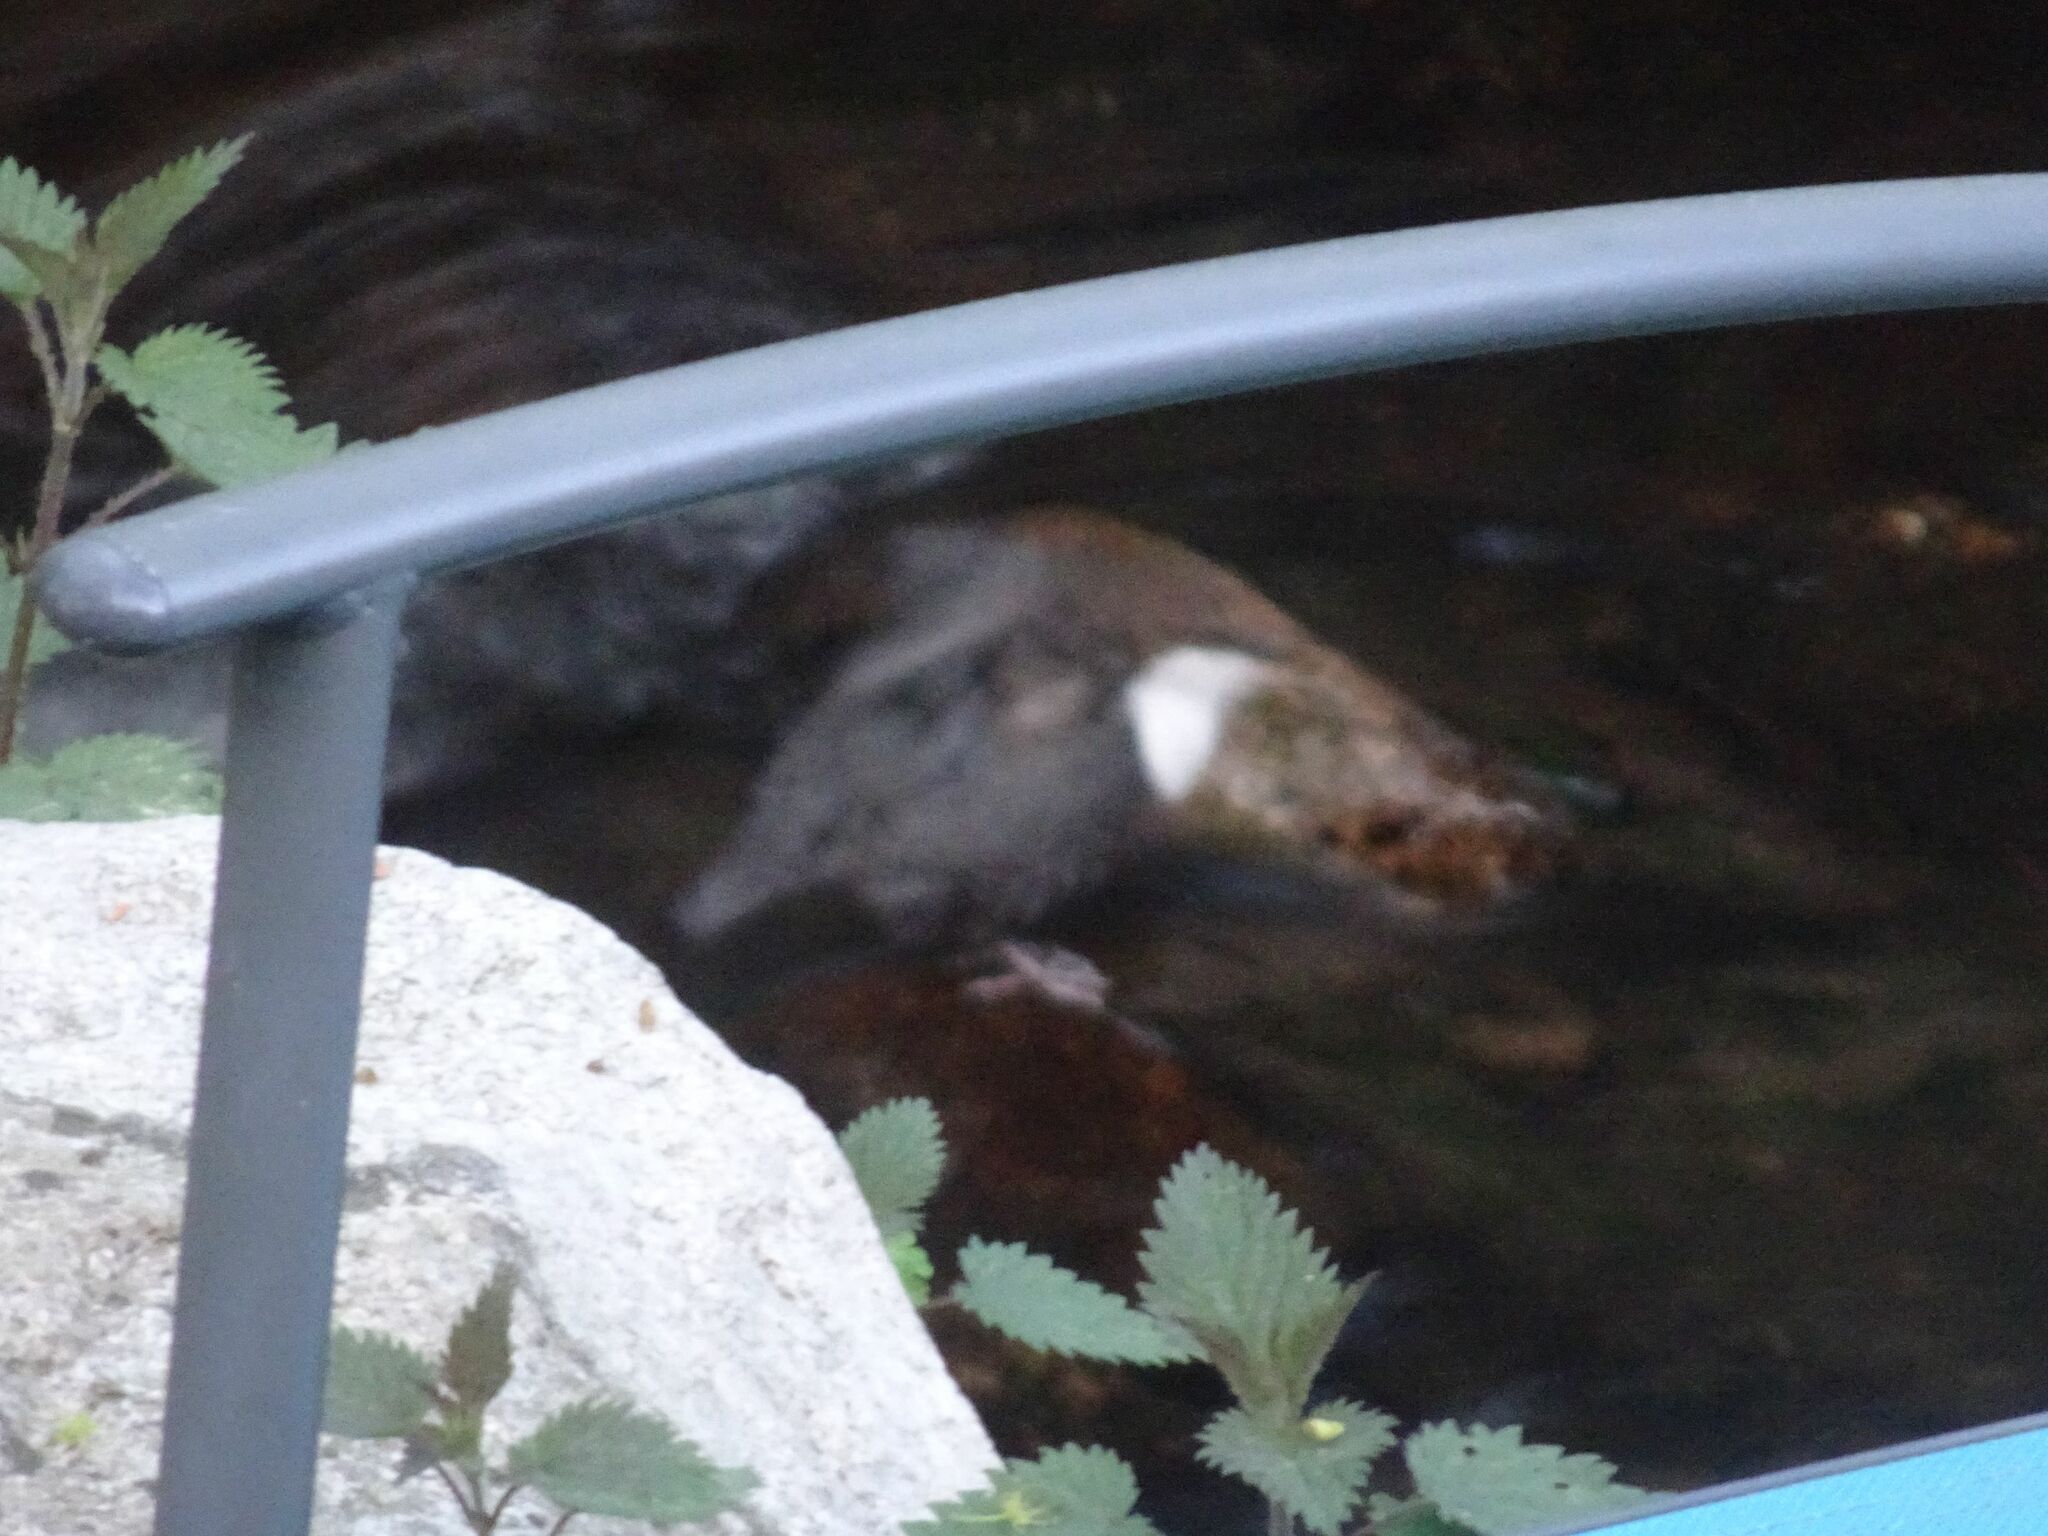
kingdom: Animalia
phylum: Chordata
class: Aves
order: Passeriformes
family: Cinclidae
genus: Cinclus
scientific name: Cinclus cinclus
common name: White-throated dipper
